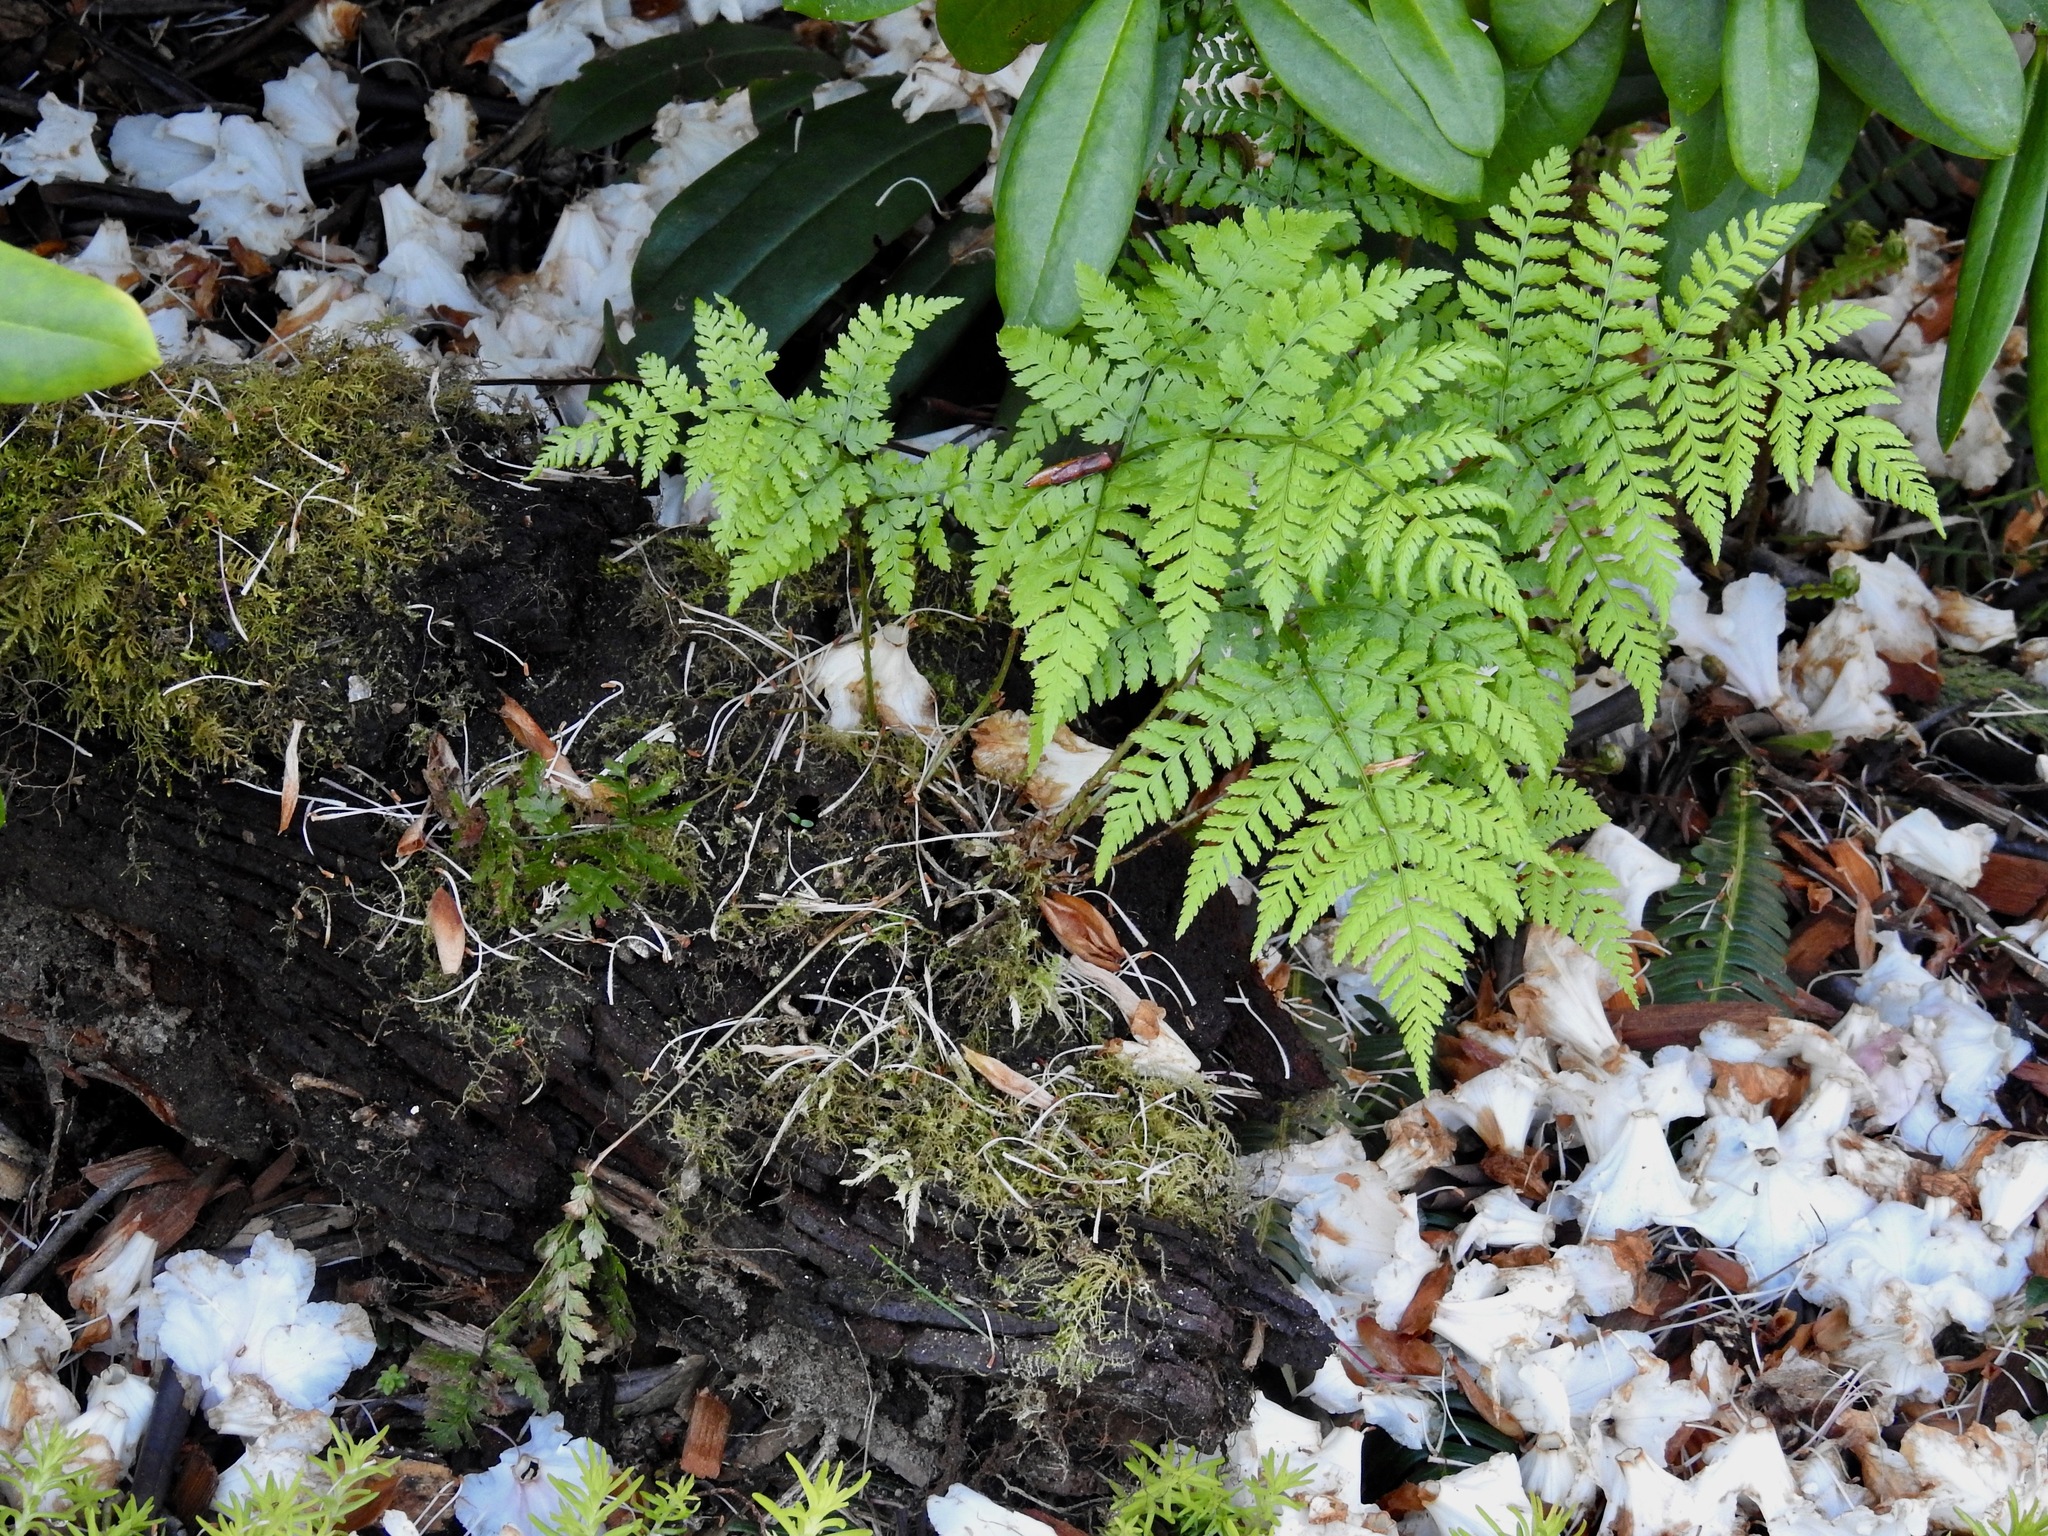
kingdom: Plantae
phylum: Tracheophyta
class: Polypodiopsida
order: Polypodiales
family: Dryopteridaceae
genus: Dryopteris
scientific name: Dryopteris expansa
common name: Northern buckler fern
